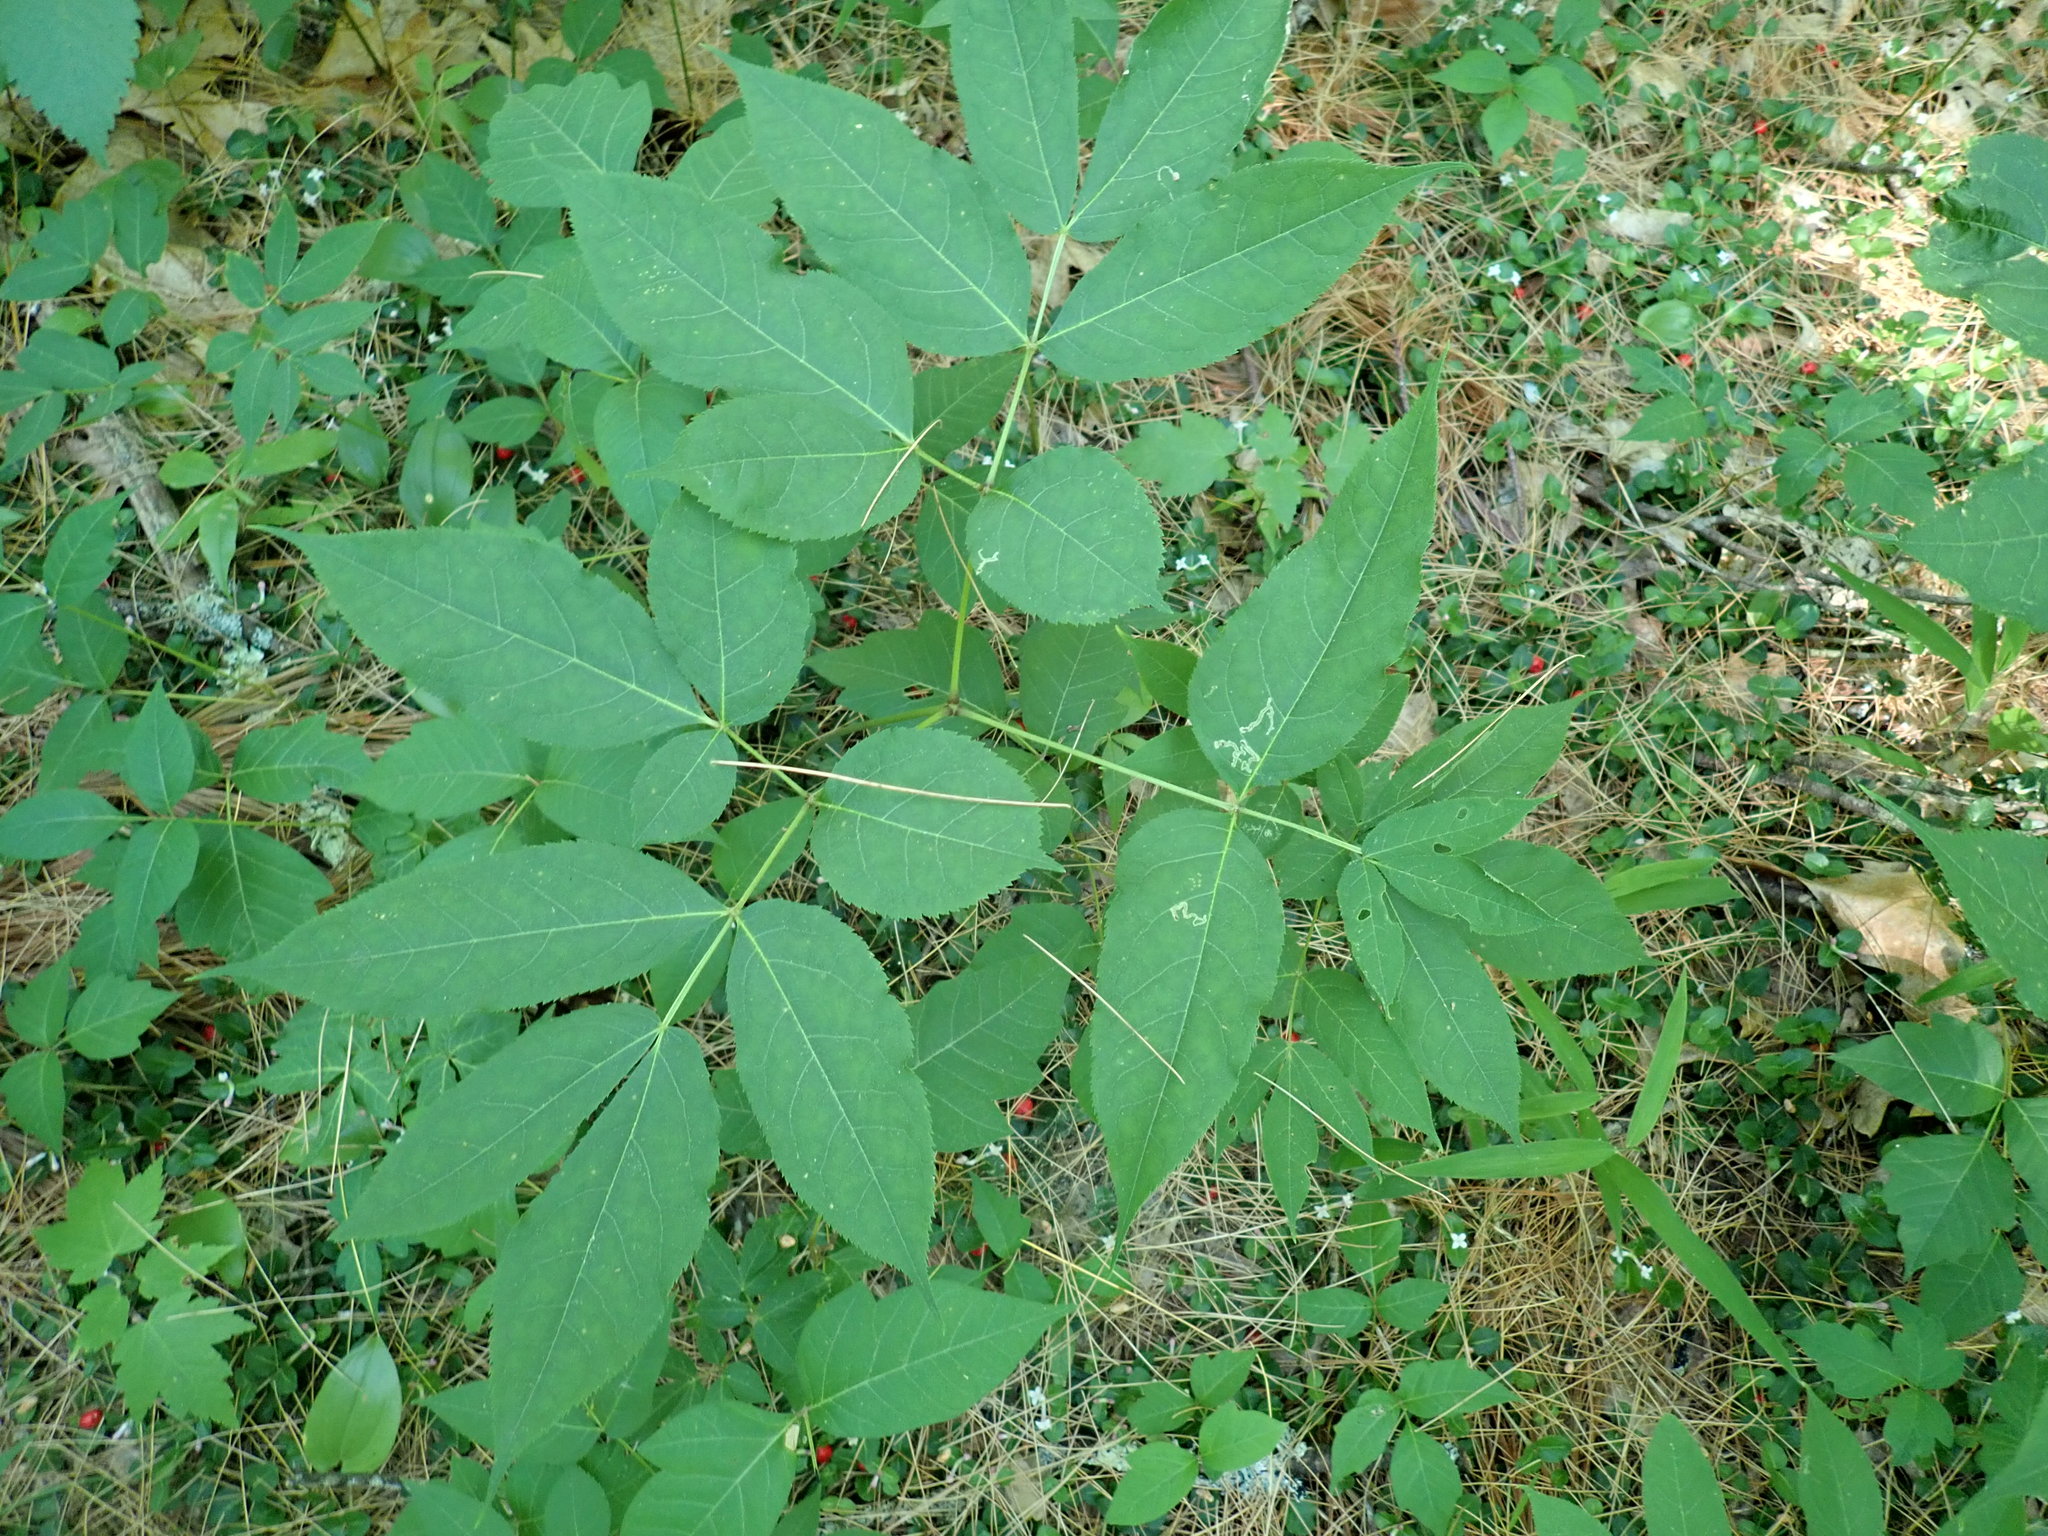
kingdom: Plantae
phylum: Tracheophyta
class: Magnoliopsida
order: Apiales
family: Araliaceae
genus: Aralia
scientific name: Aralia nudicaulis
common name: Wild sarsaparilla
